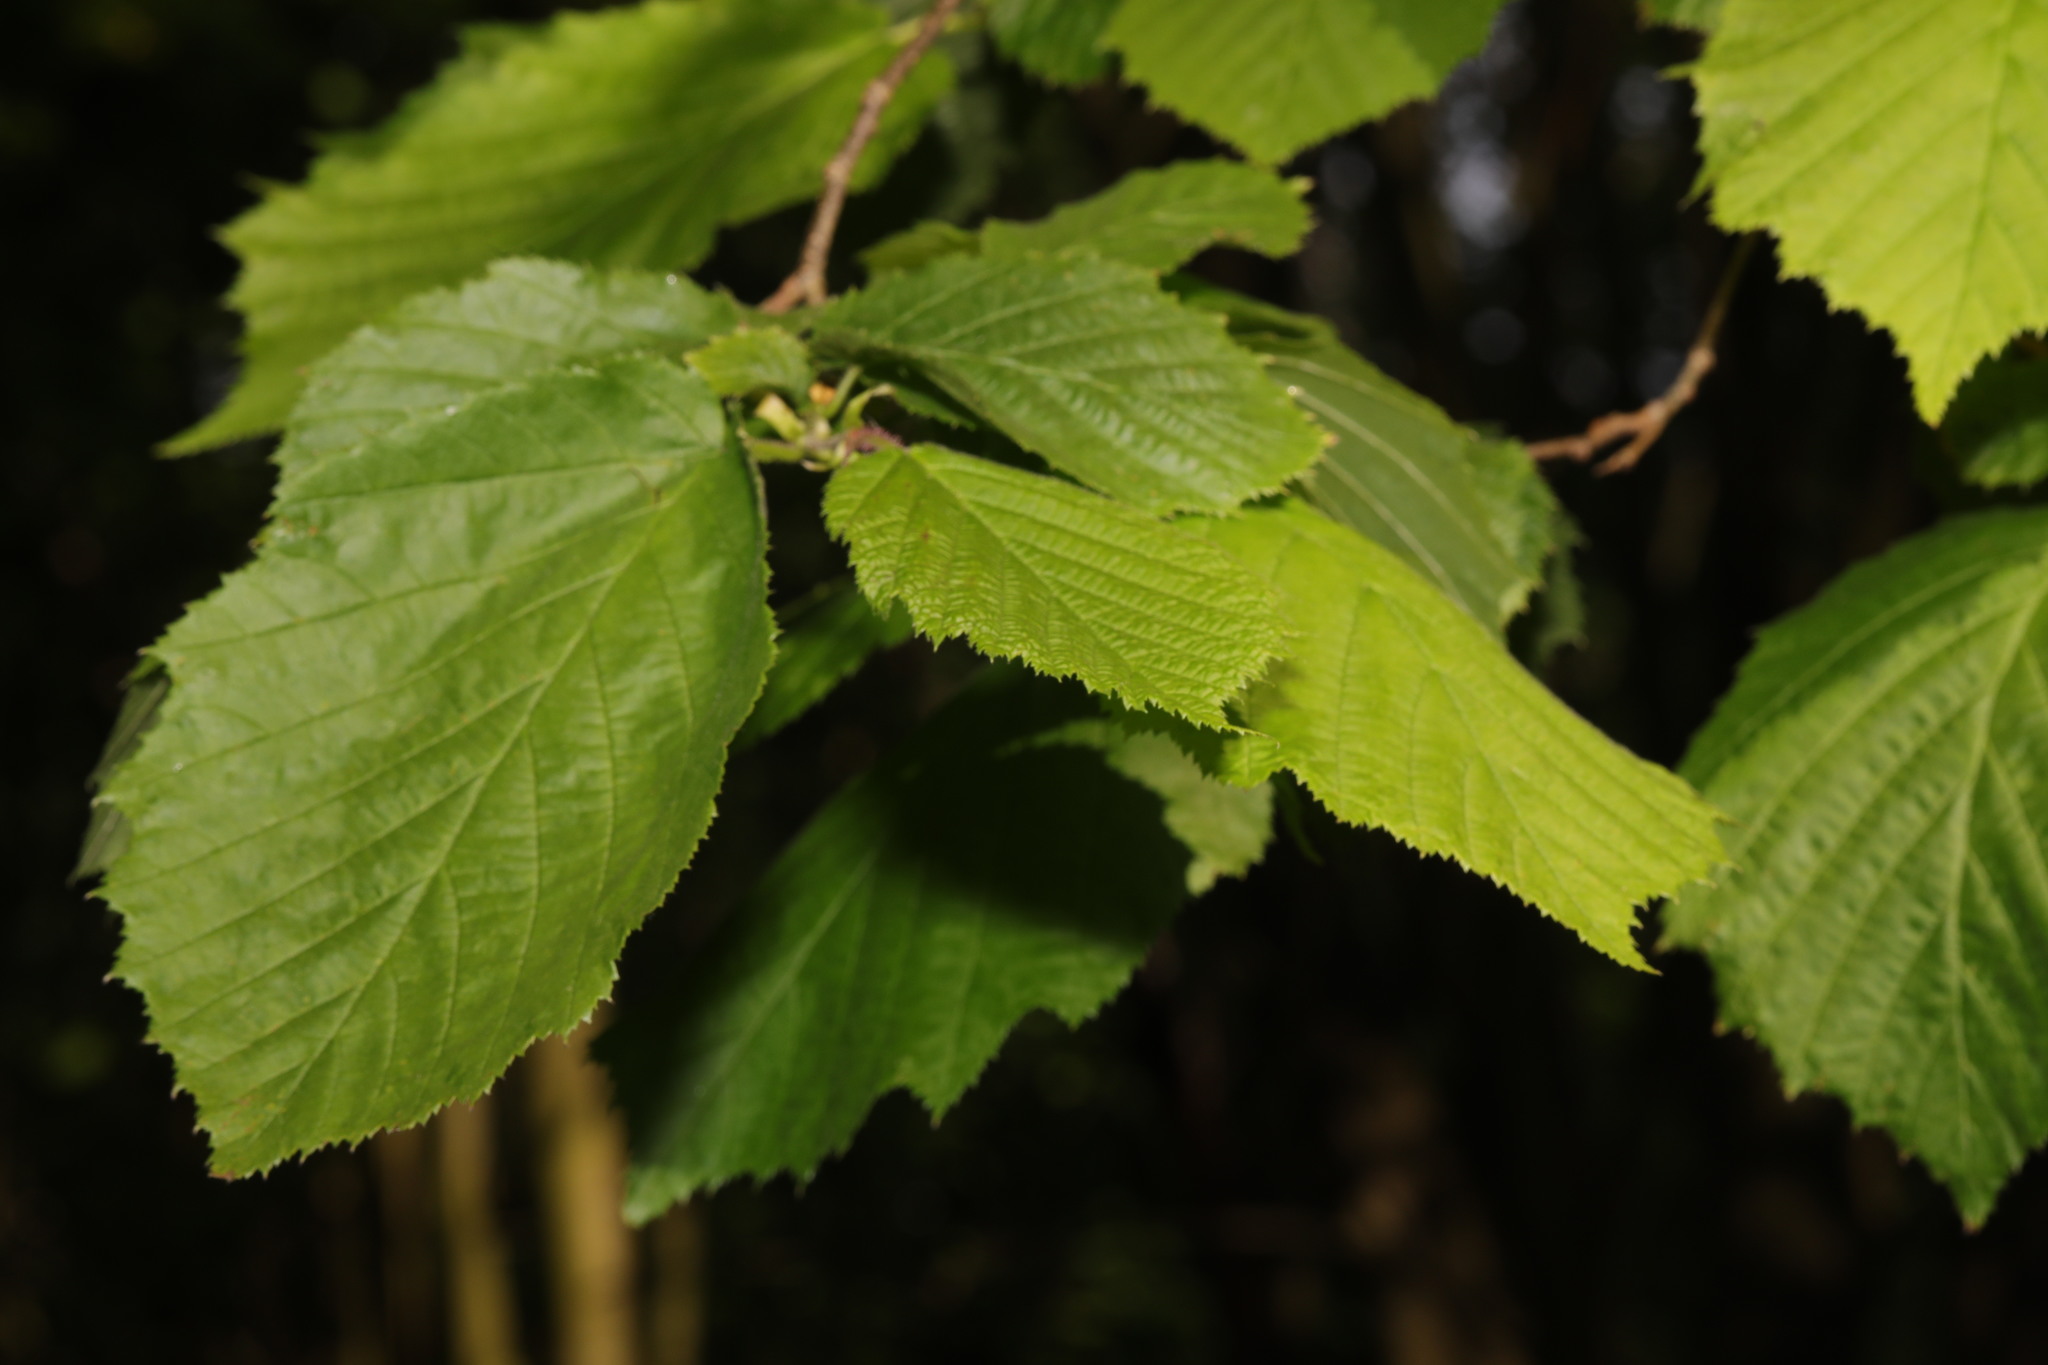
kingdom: Plantae
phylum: Tracheophyta
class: Magnoliopsida
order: Fagales
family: Betulaceae
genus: Corylus
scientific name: Corylus avellana
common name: European hazel
